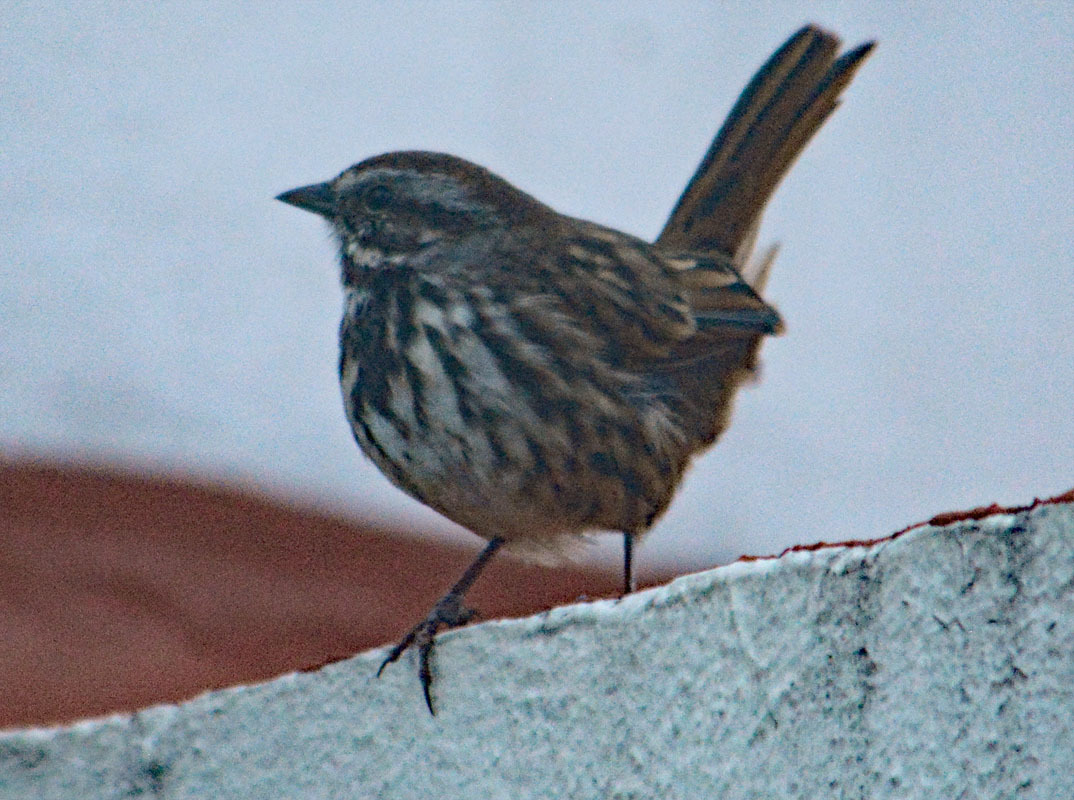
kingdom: Animalia
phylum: Chordata
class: Aves
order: Passeriformes
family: Passerellidae
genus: Melospiza
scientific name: Melospiza melodia
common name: Song sparrow
